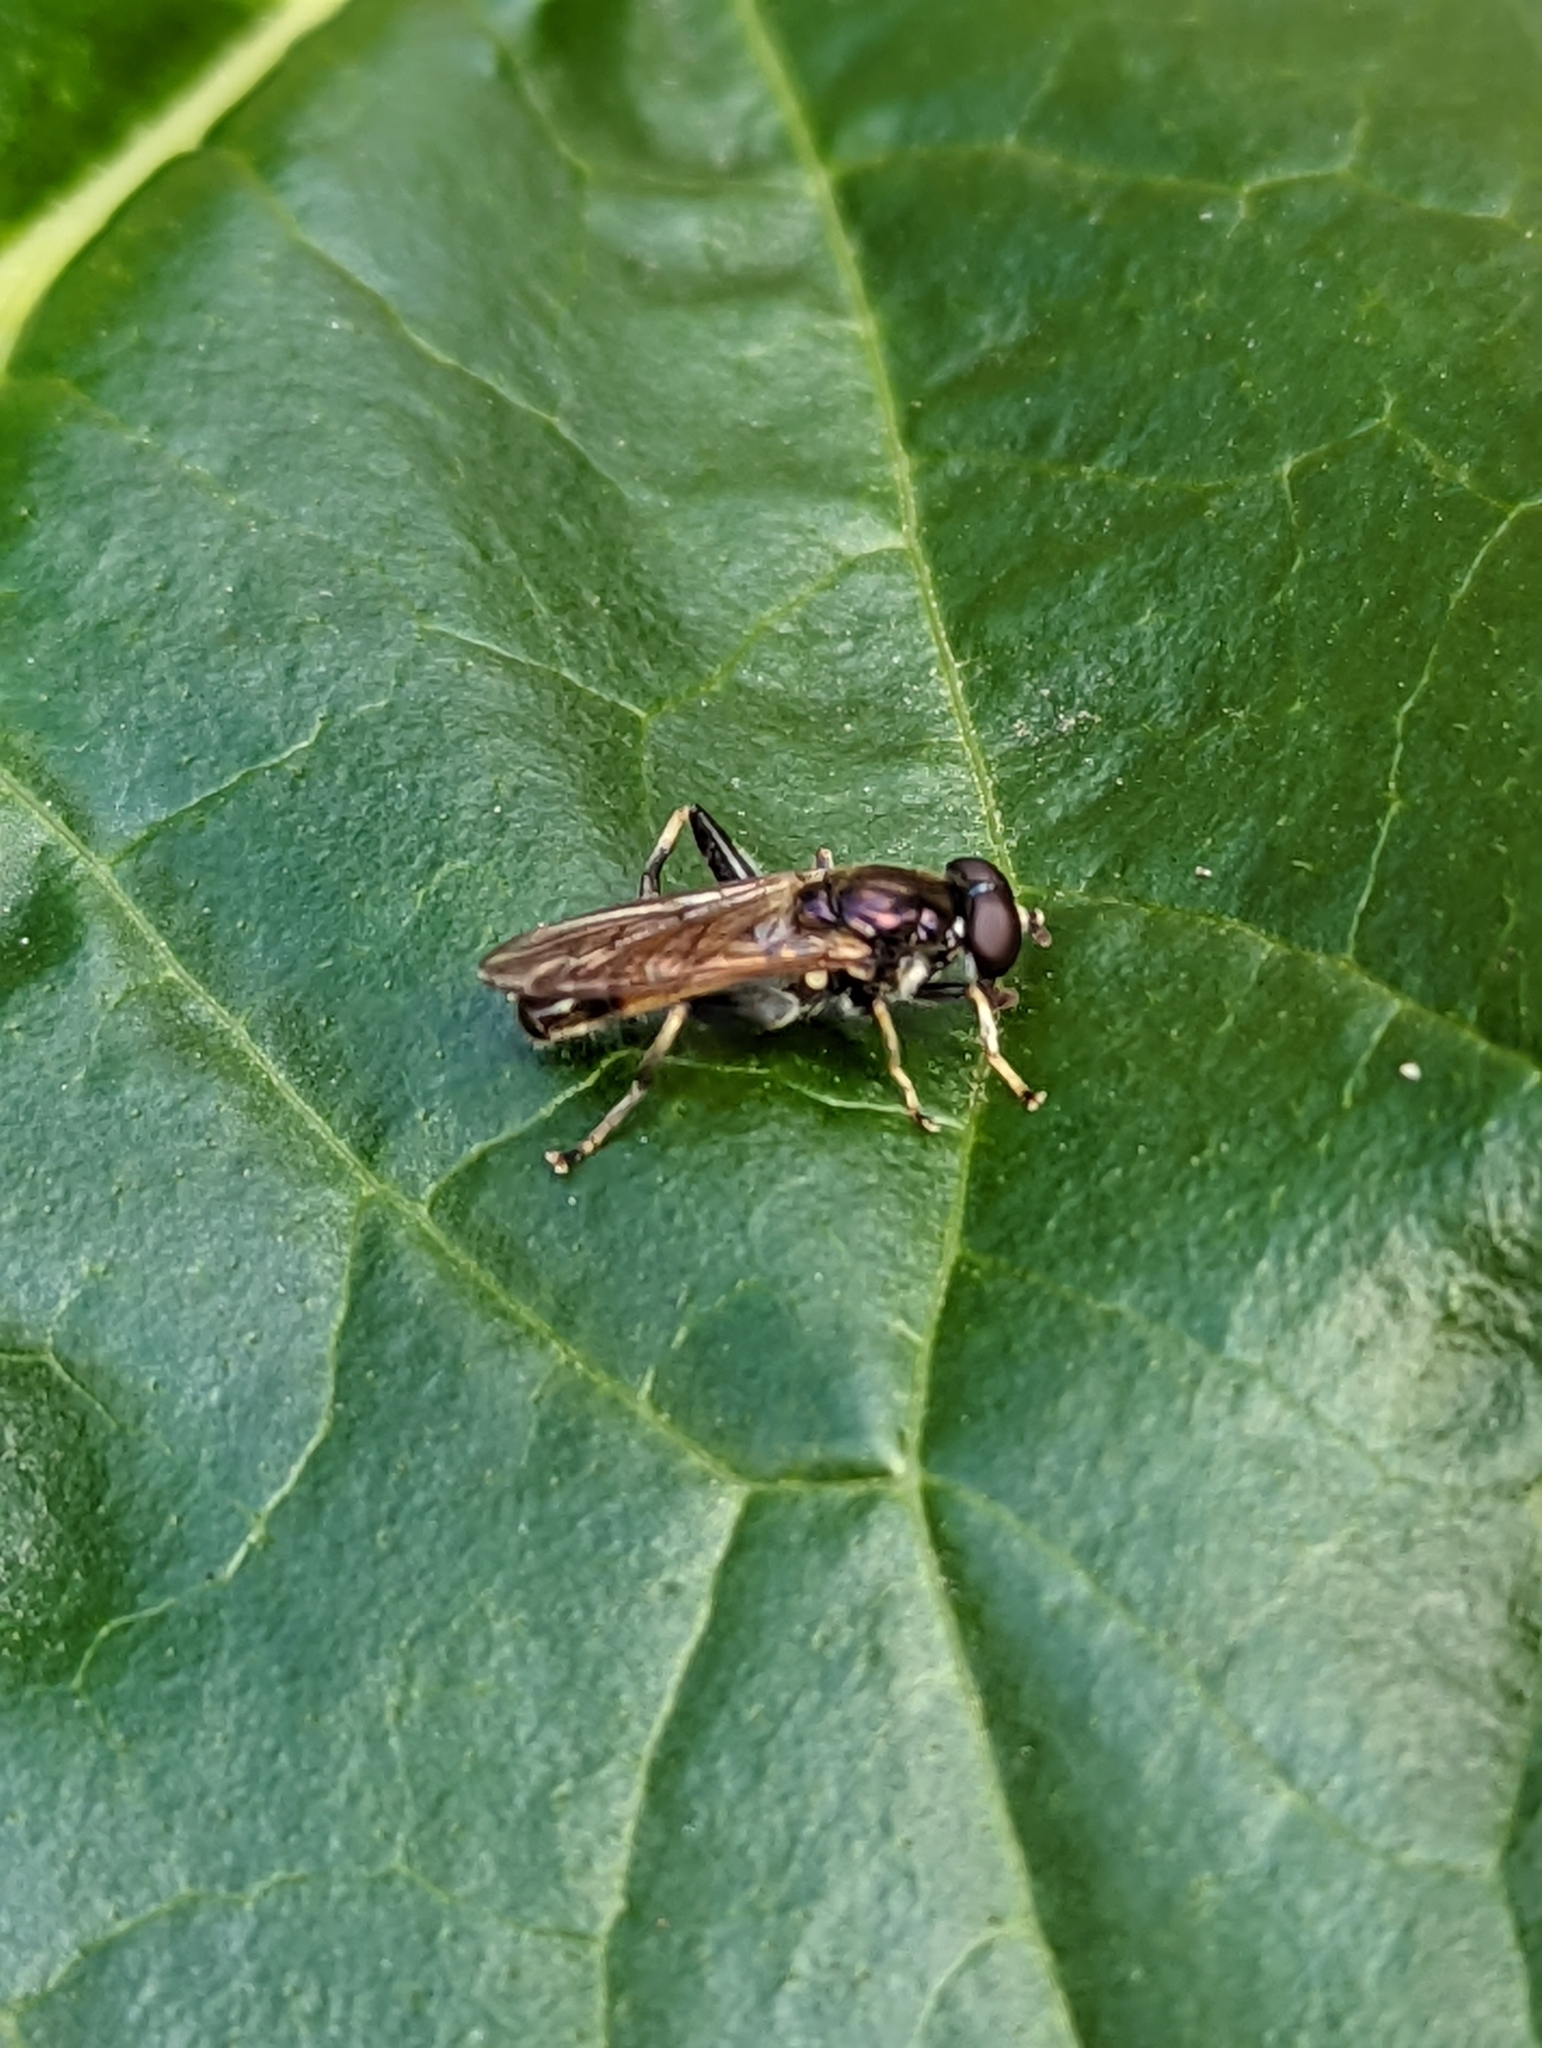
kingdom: Animalia
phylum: Arthropoda
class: Insecta
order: Diptera
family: Syrphidae
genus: Xylota
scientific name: Xylota segnis
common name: Brown-toed forest fly
